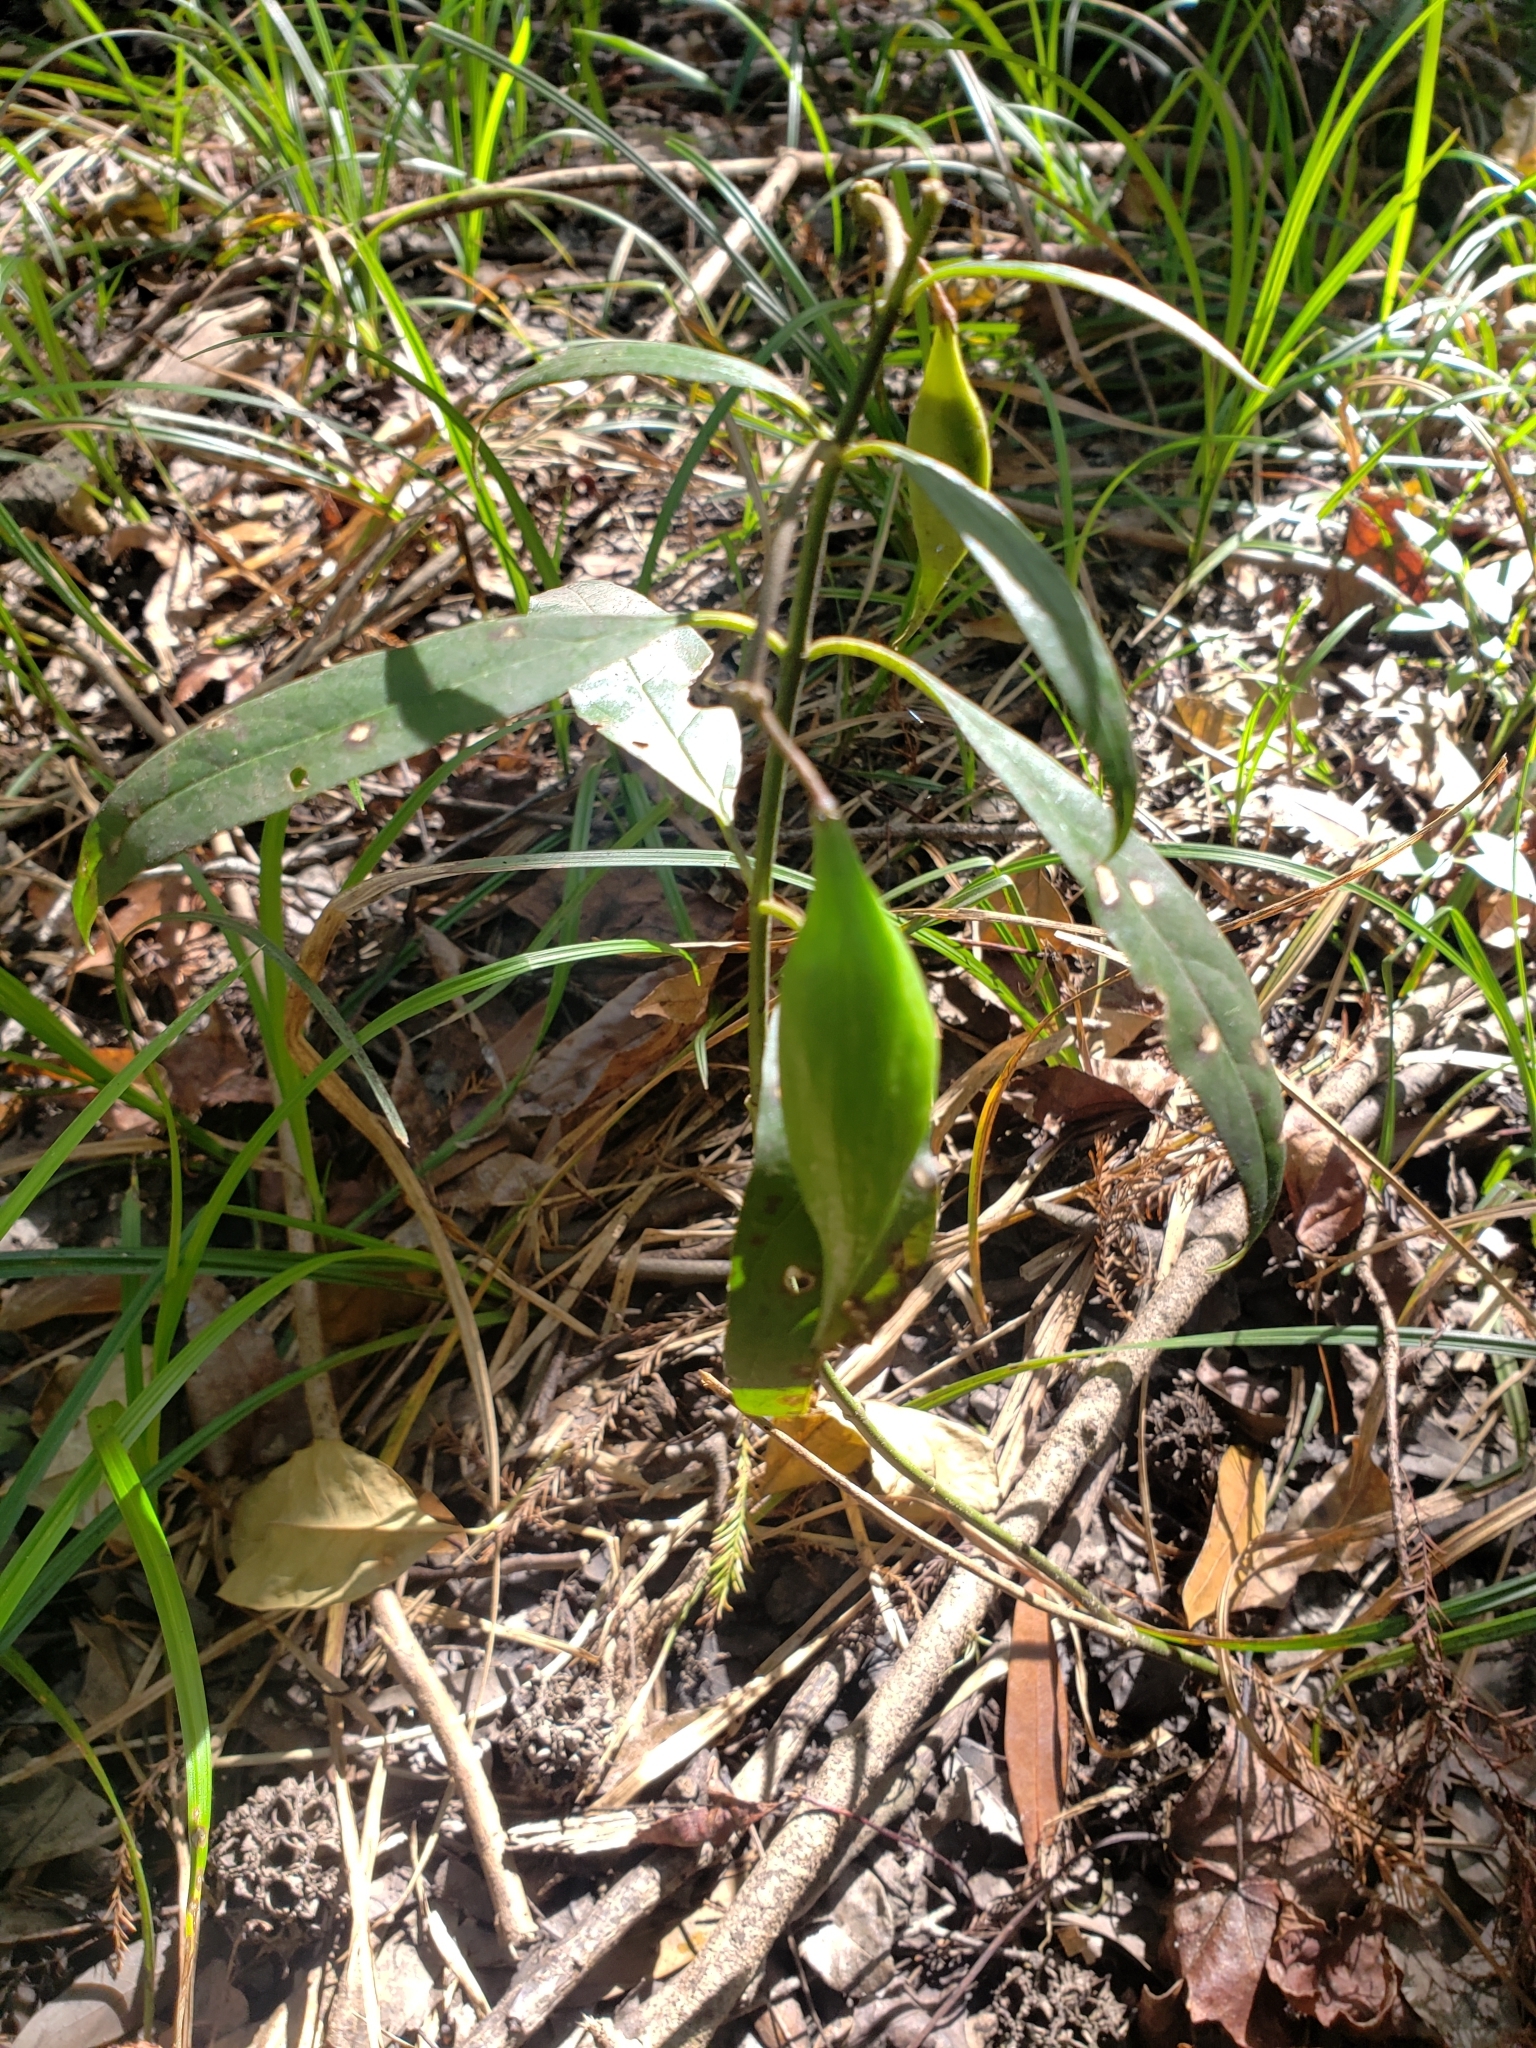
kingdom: Plantae
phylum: Tracheophyta
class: Magnoliopsida
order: Gentianales
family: Apocynaceae
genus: Asclepias
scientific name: Asclepias perennis
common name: Smooth-seed milkweed
